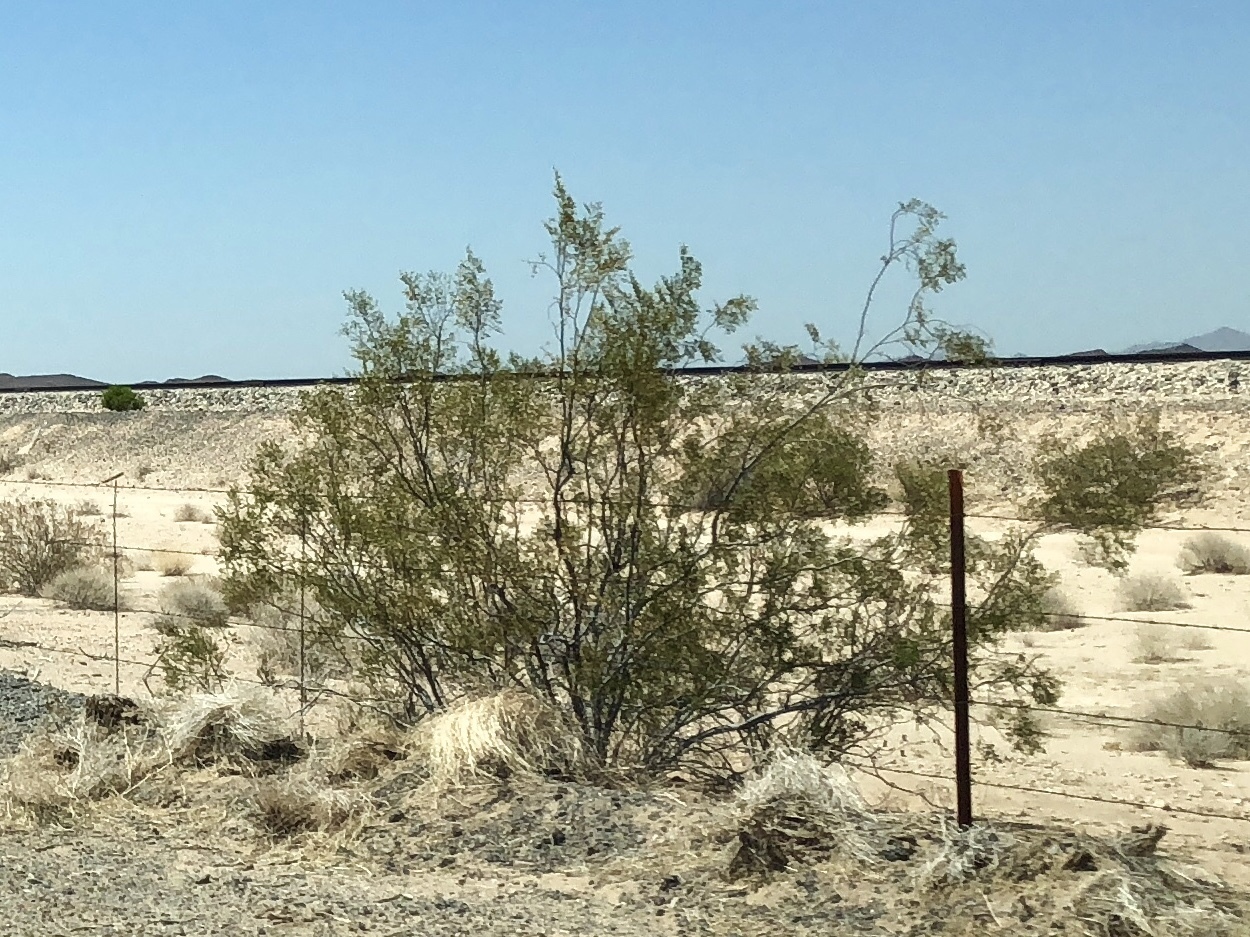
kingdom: Plantae
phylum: Tracheophyta
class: Magnoliopsida
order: Zygophyllales
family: Zygophyllaceae
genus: Larrea
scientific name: Larrea tridentata
